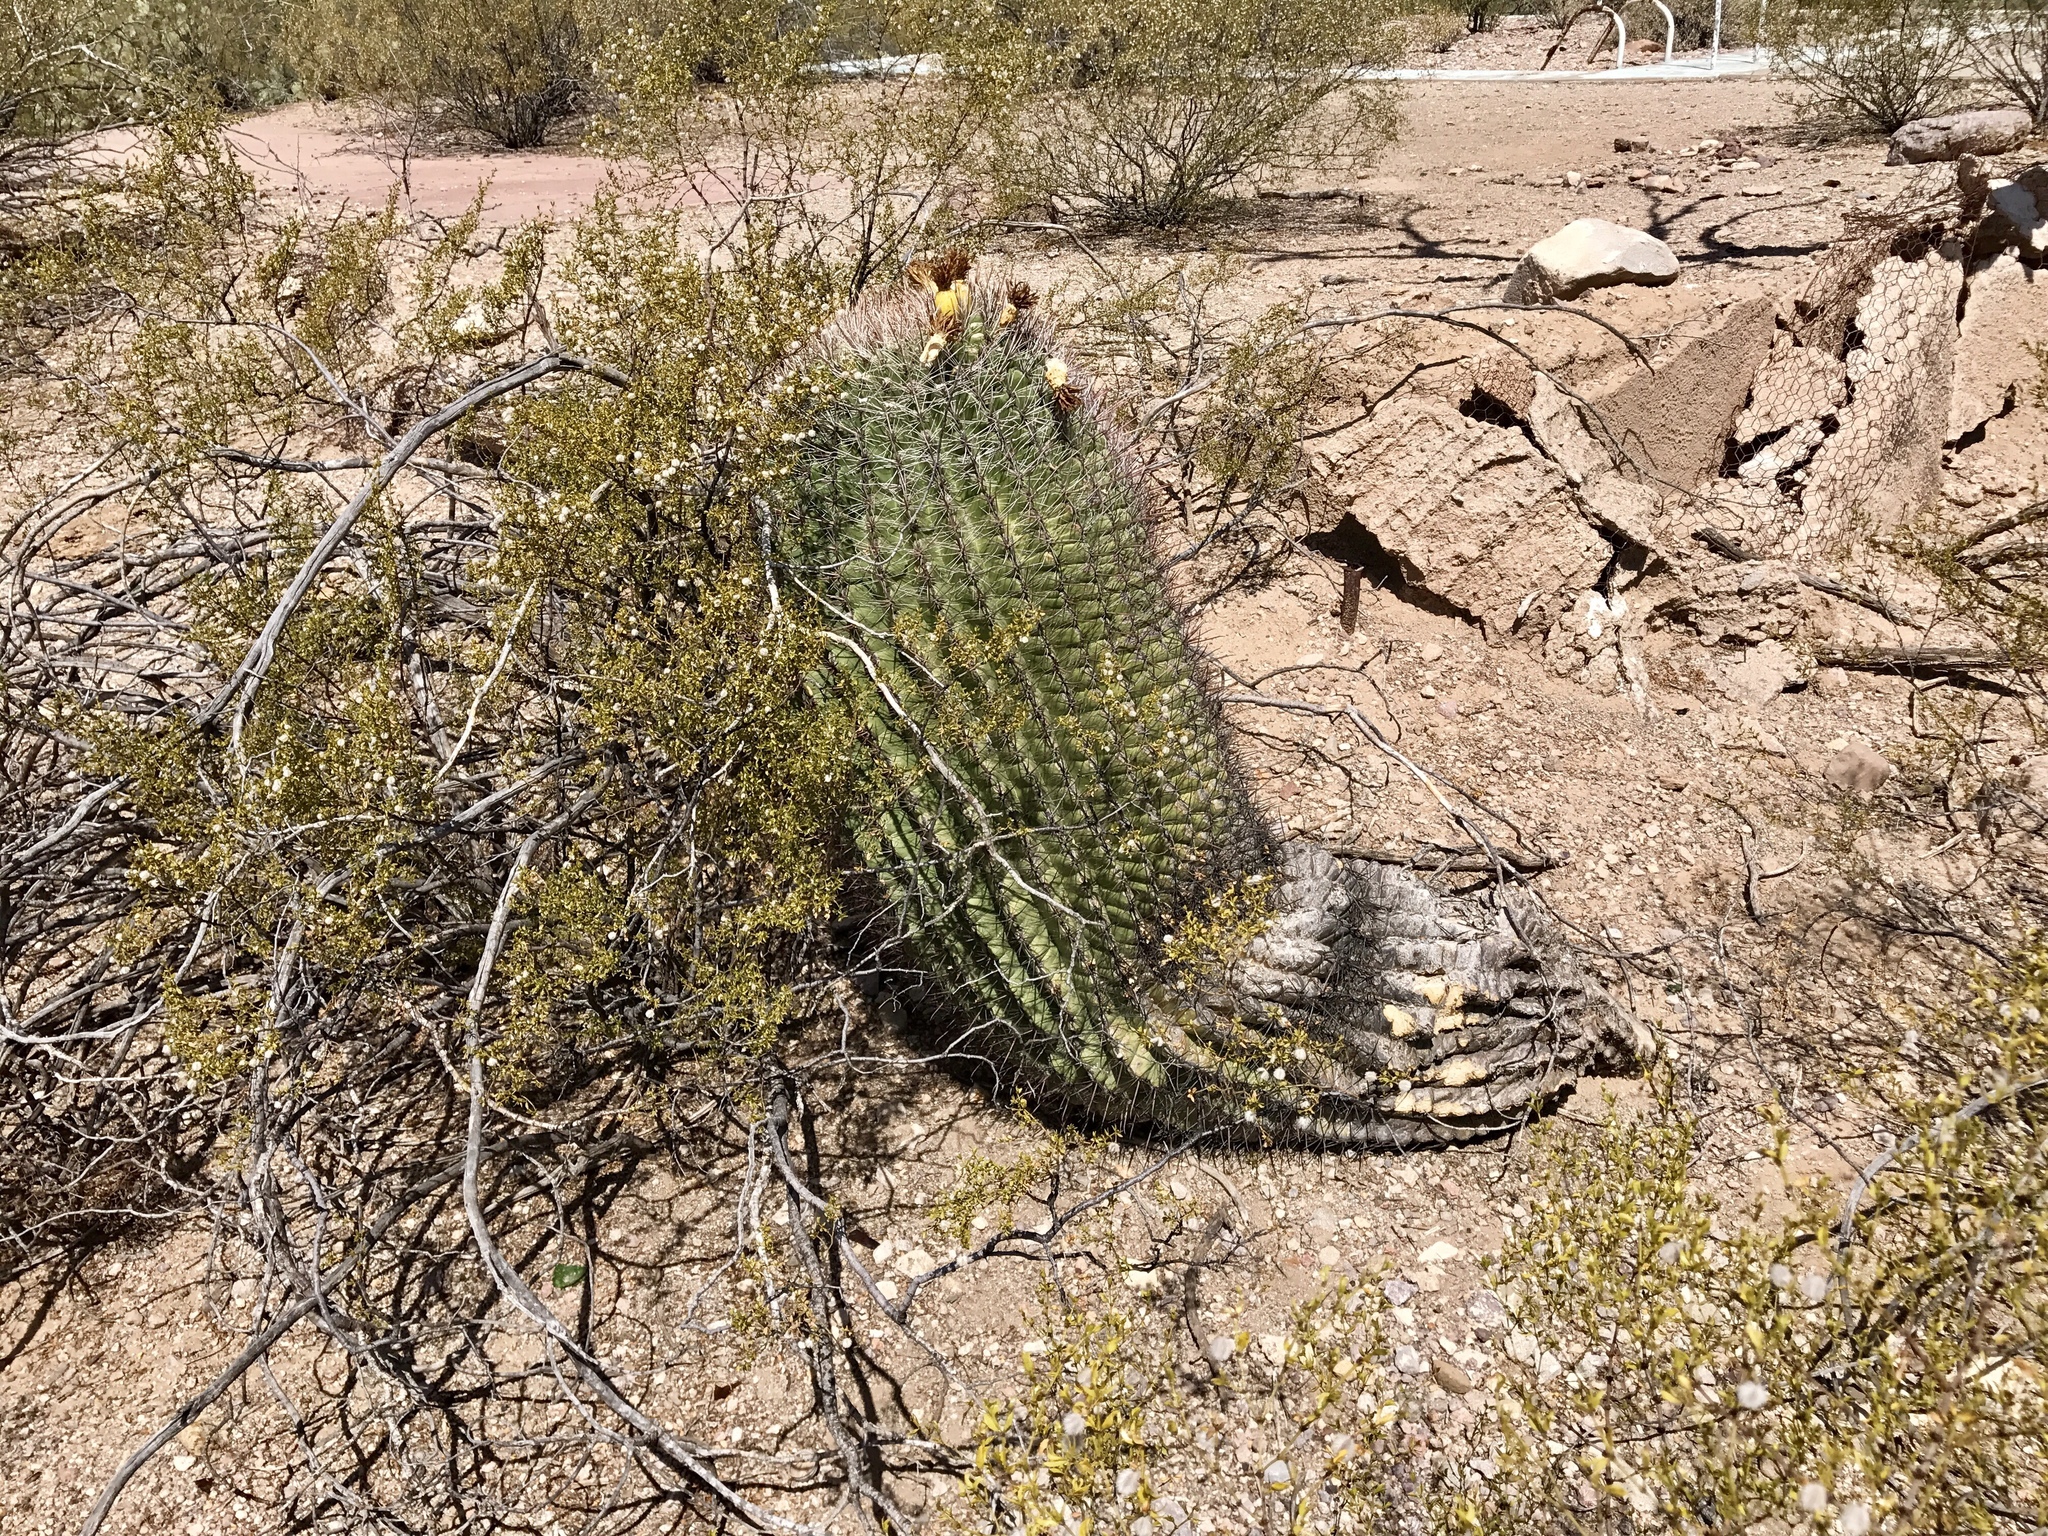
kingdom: Plantae
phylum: Tracheophyta
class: Magnoliopsida
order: Caryophyllales
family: Cactaceae
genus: Ferocactus
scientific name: Ferocactus wislizeni
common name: Candy barrel cactus
